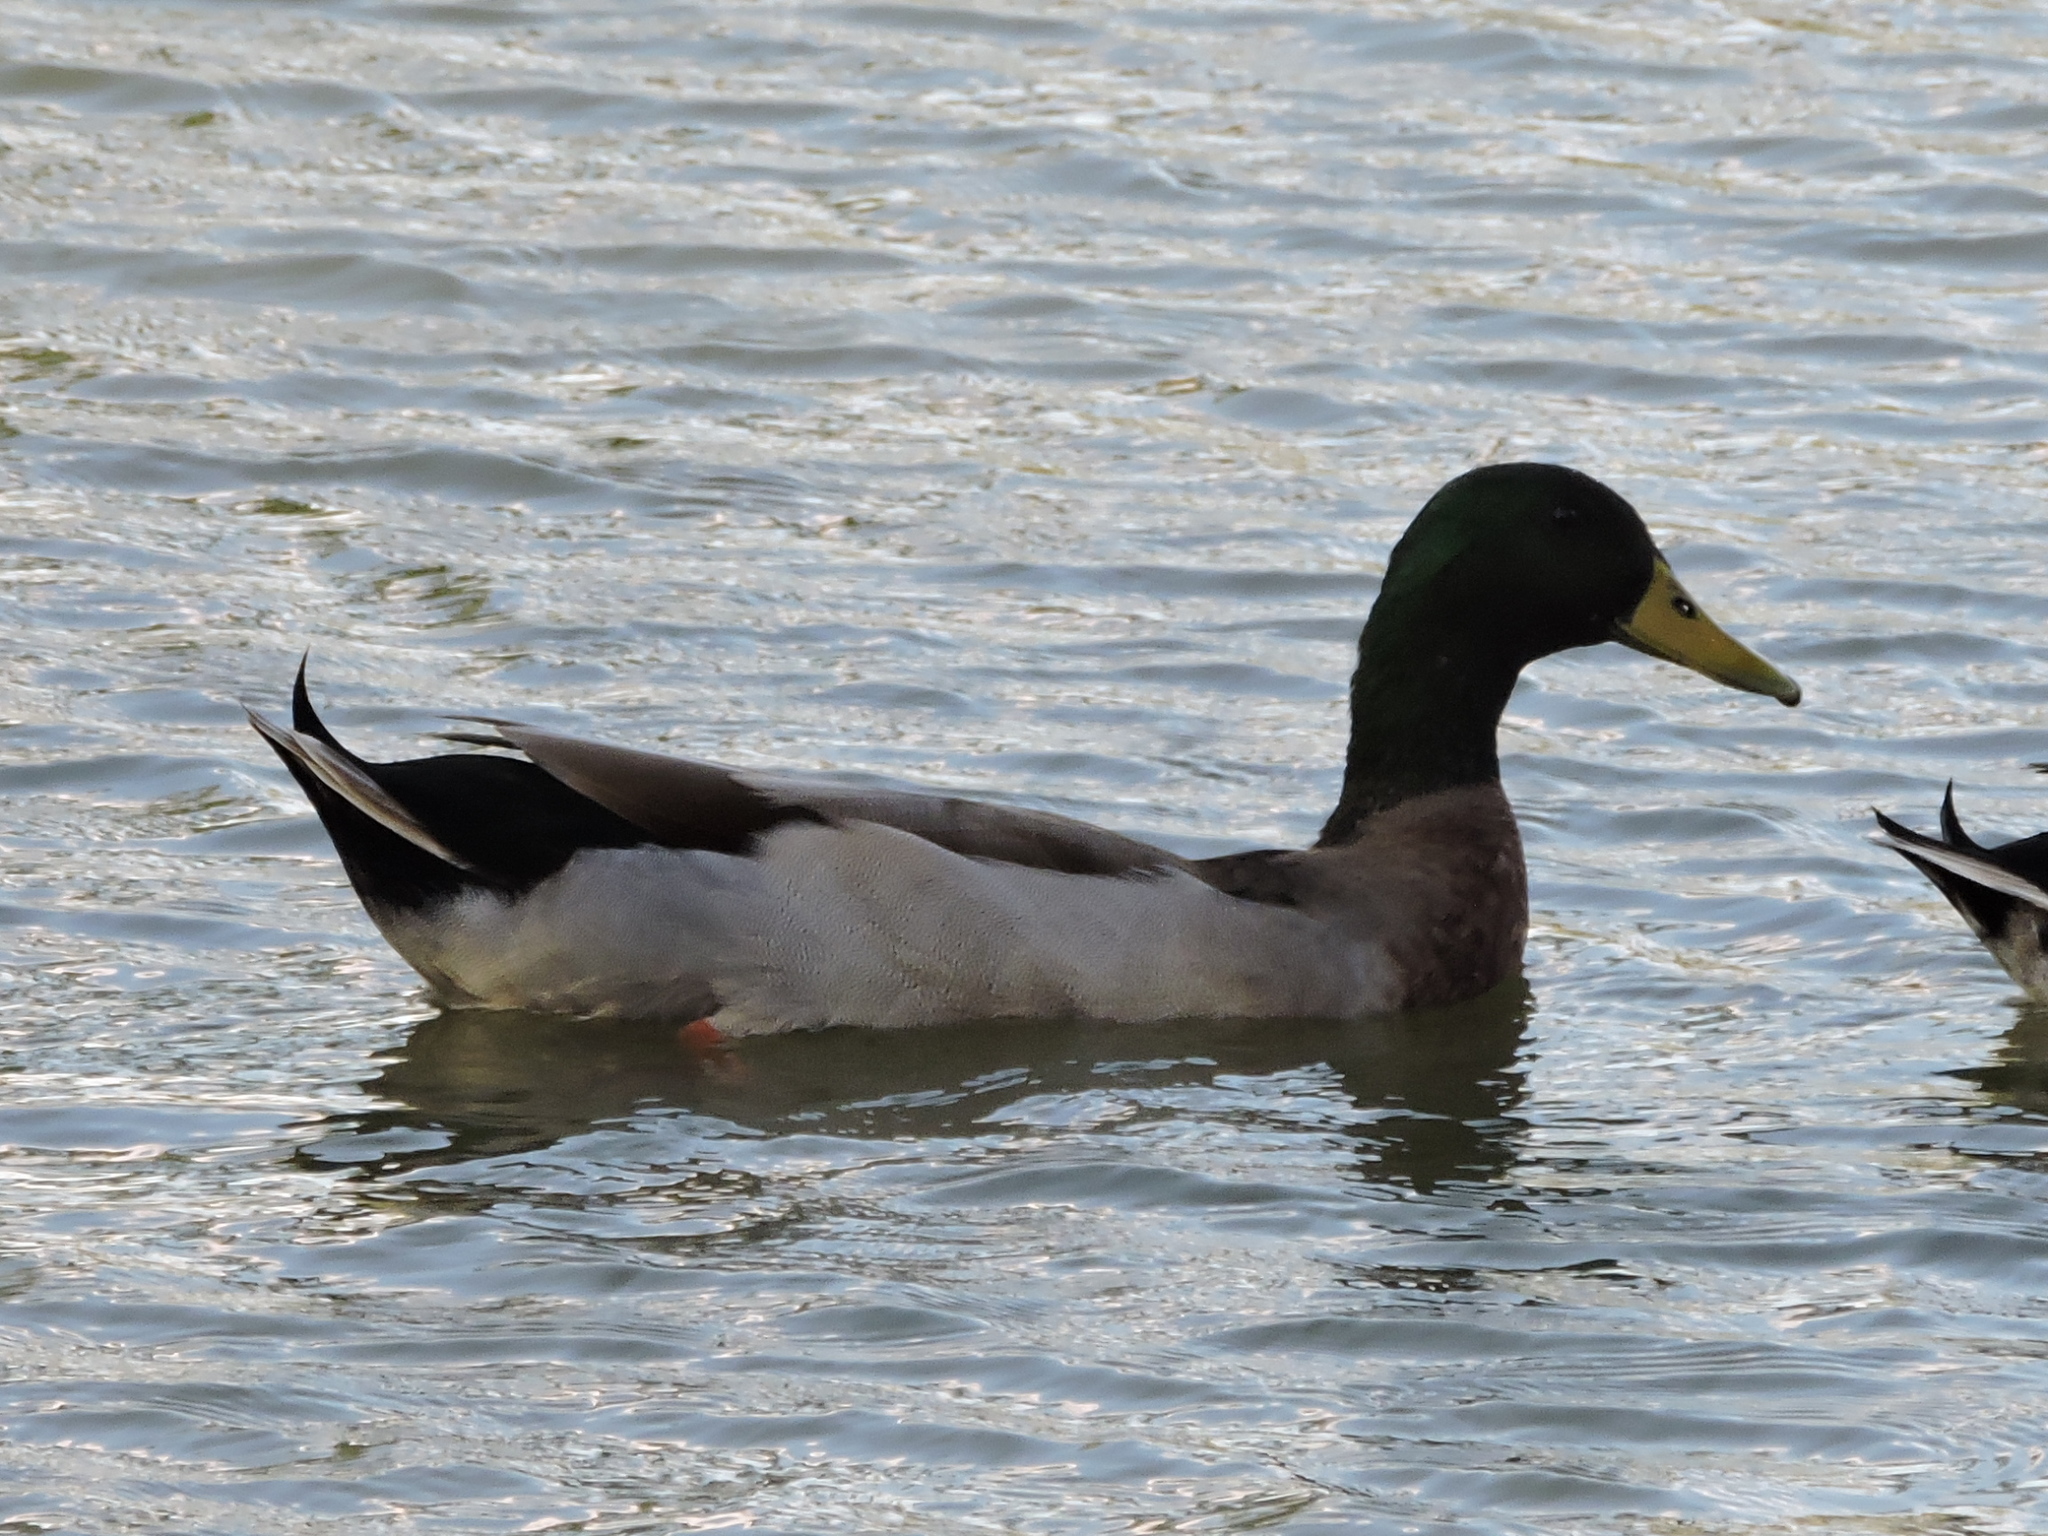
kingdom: Animalia
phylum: Chordata
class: Aves
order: Anseriformes
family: Anatidae
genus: Anas
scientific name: Anas platyrhynchos
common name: Mallard
